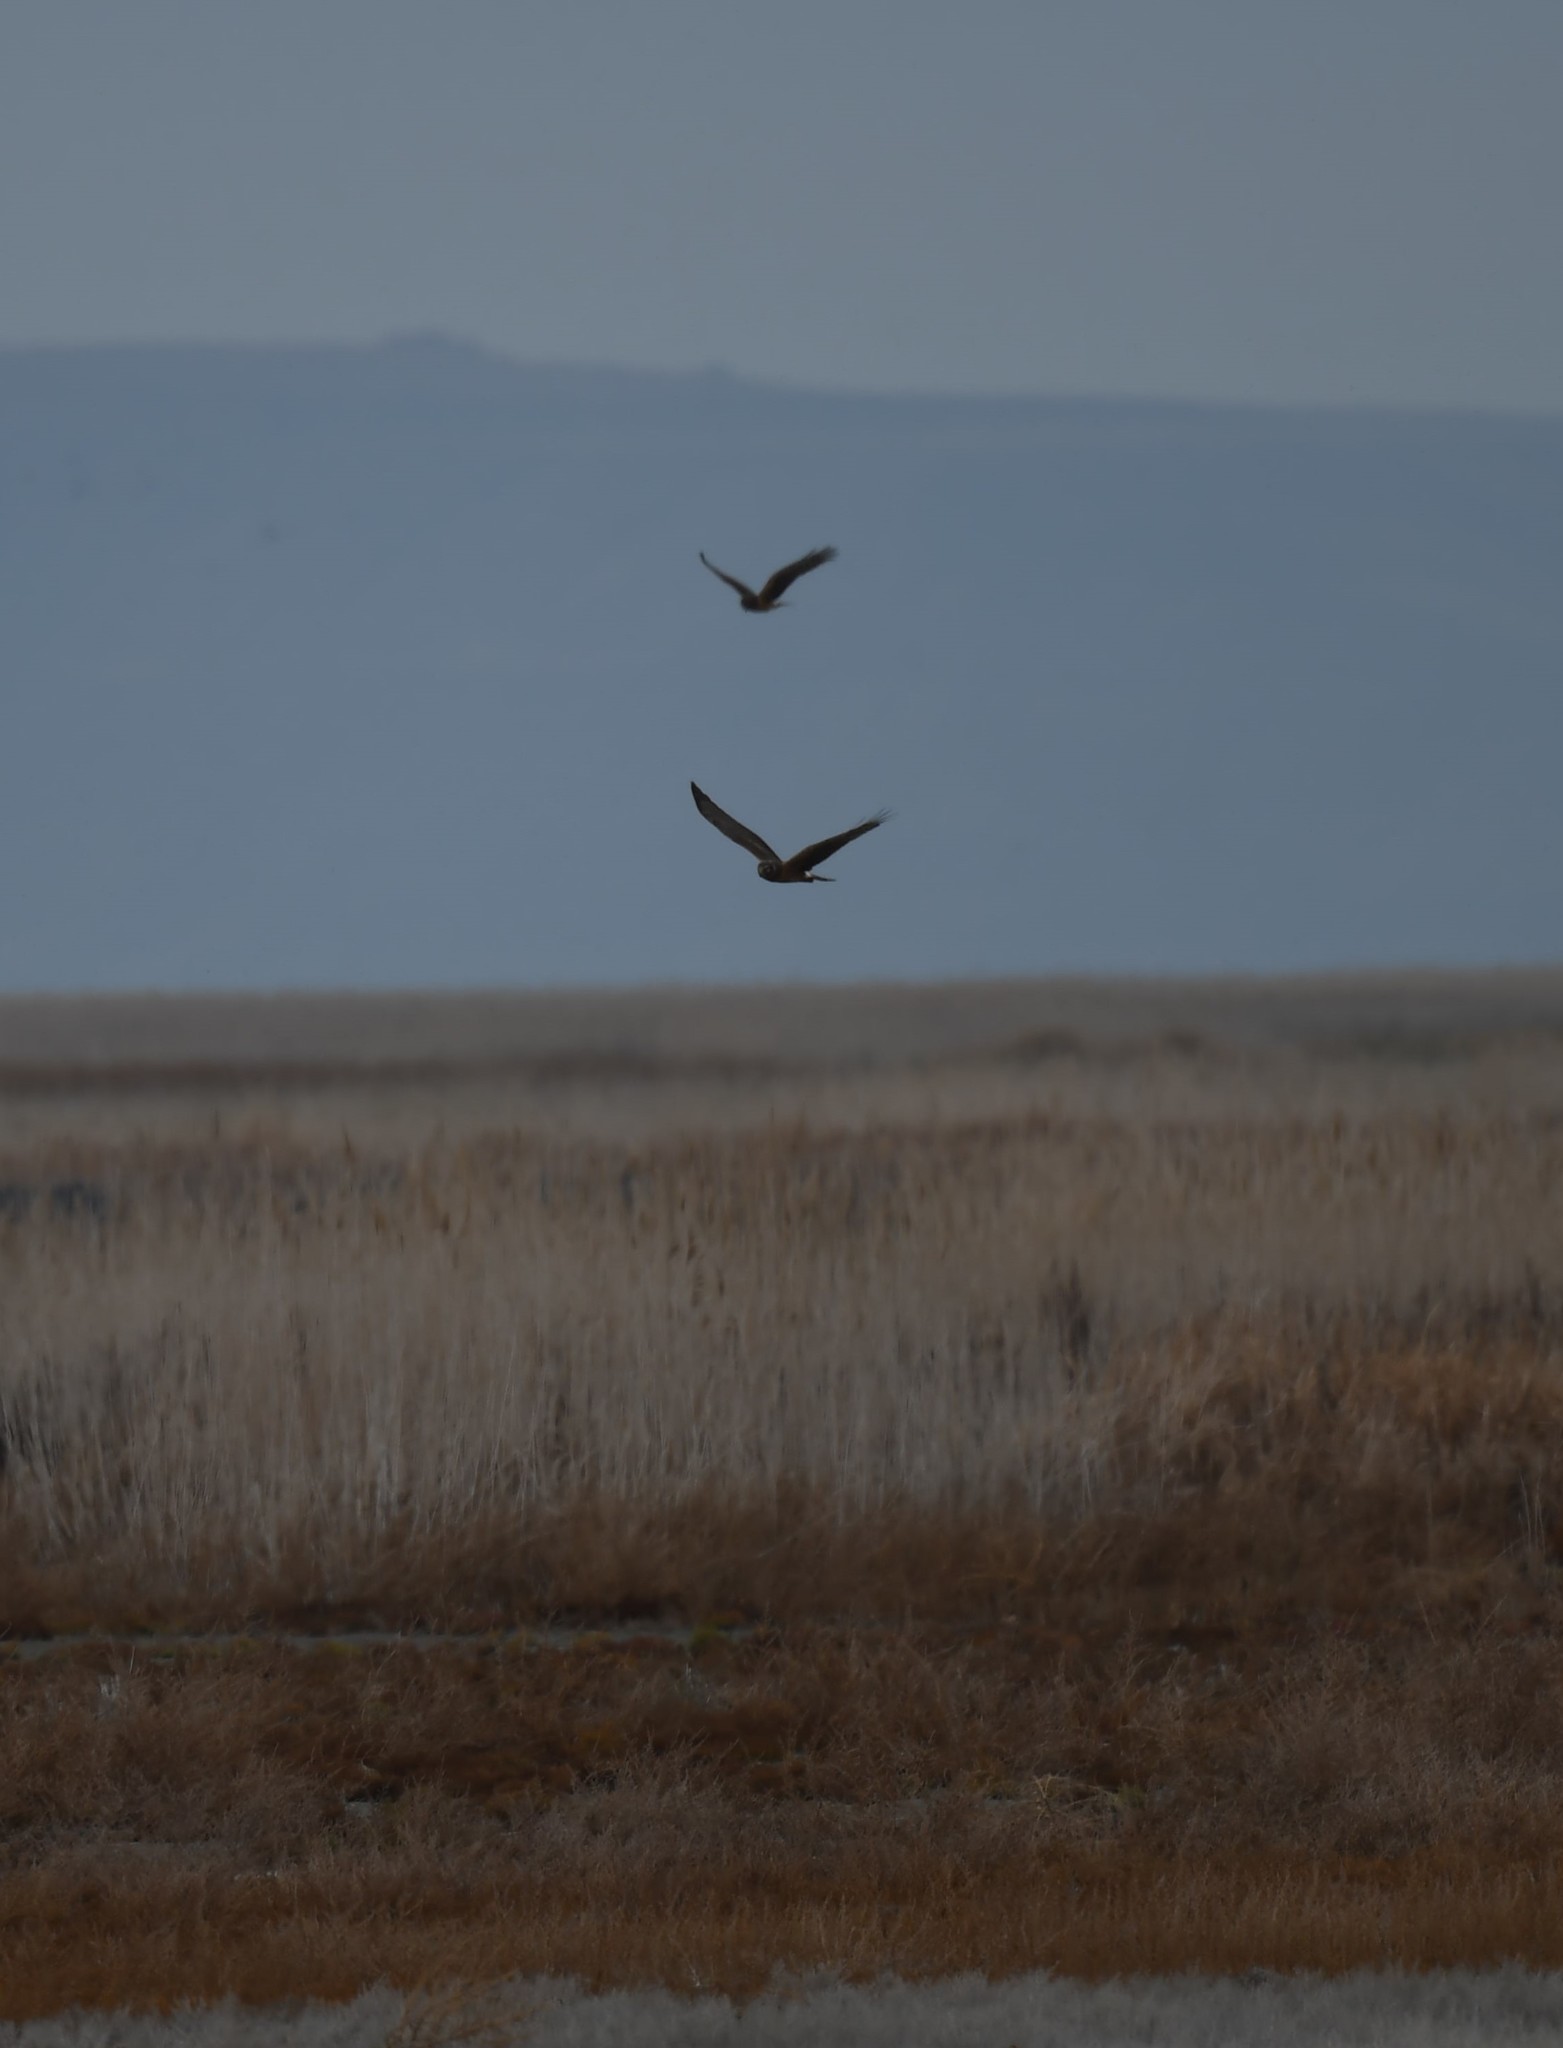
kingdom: Animalia
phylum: Chordata
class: Aves
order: Accipitriformes
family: Accipitridae
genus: Circus
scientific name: Circus cyaneus
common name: Hen harrier
